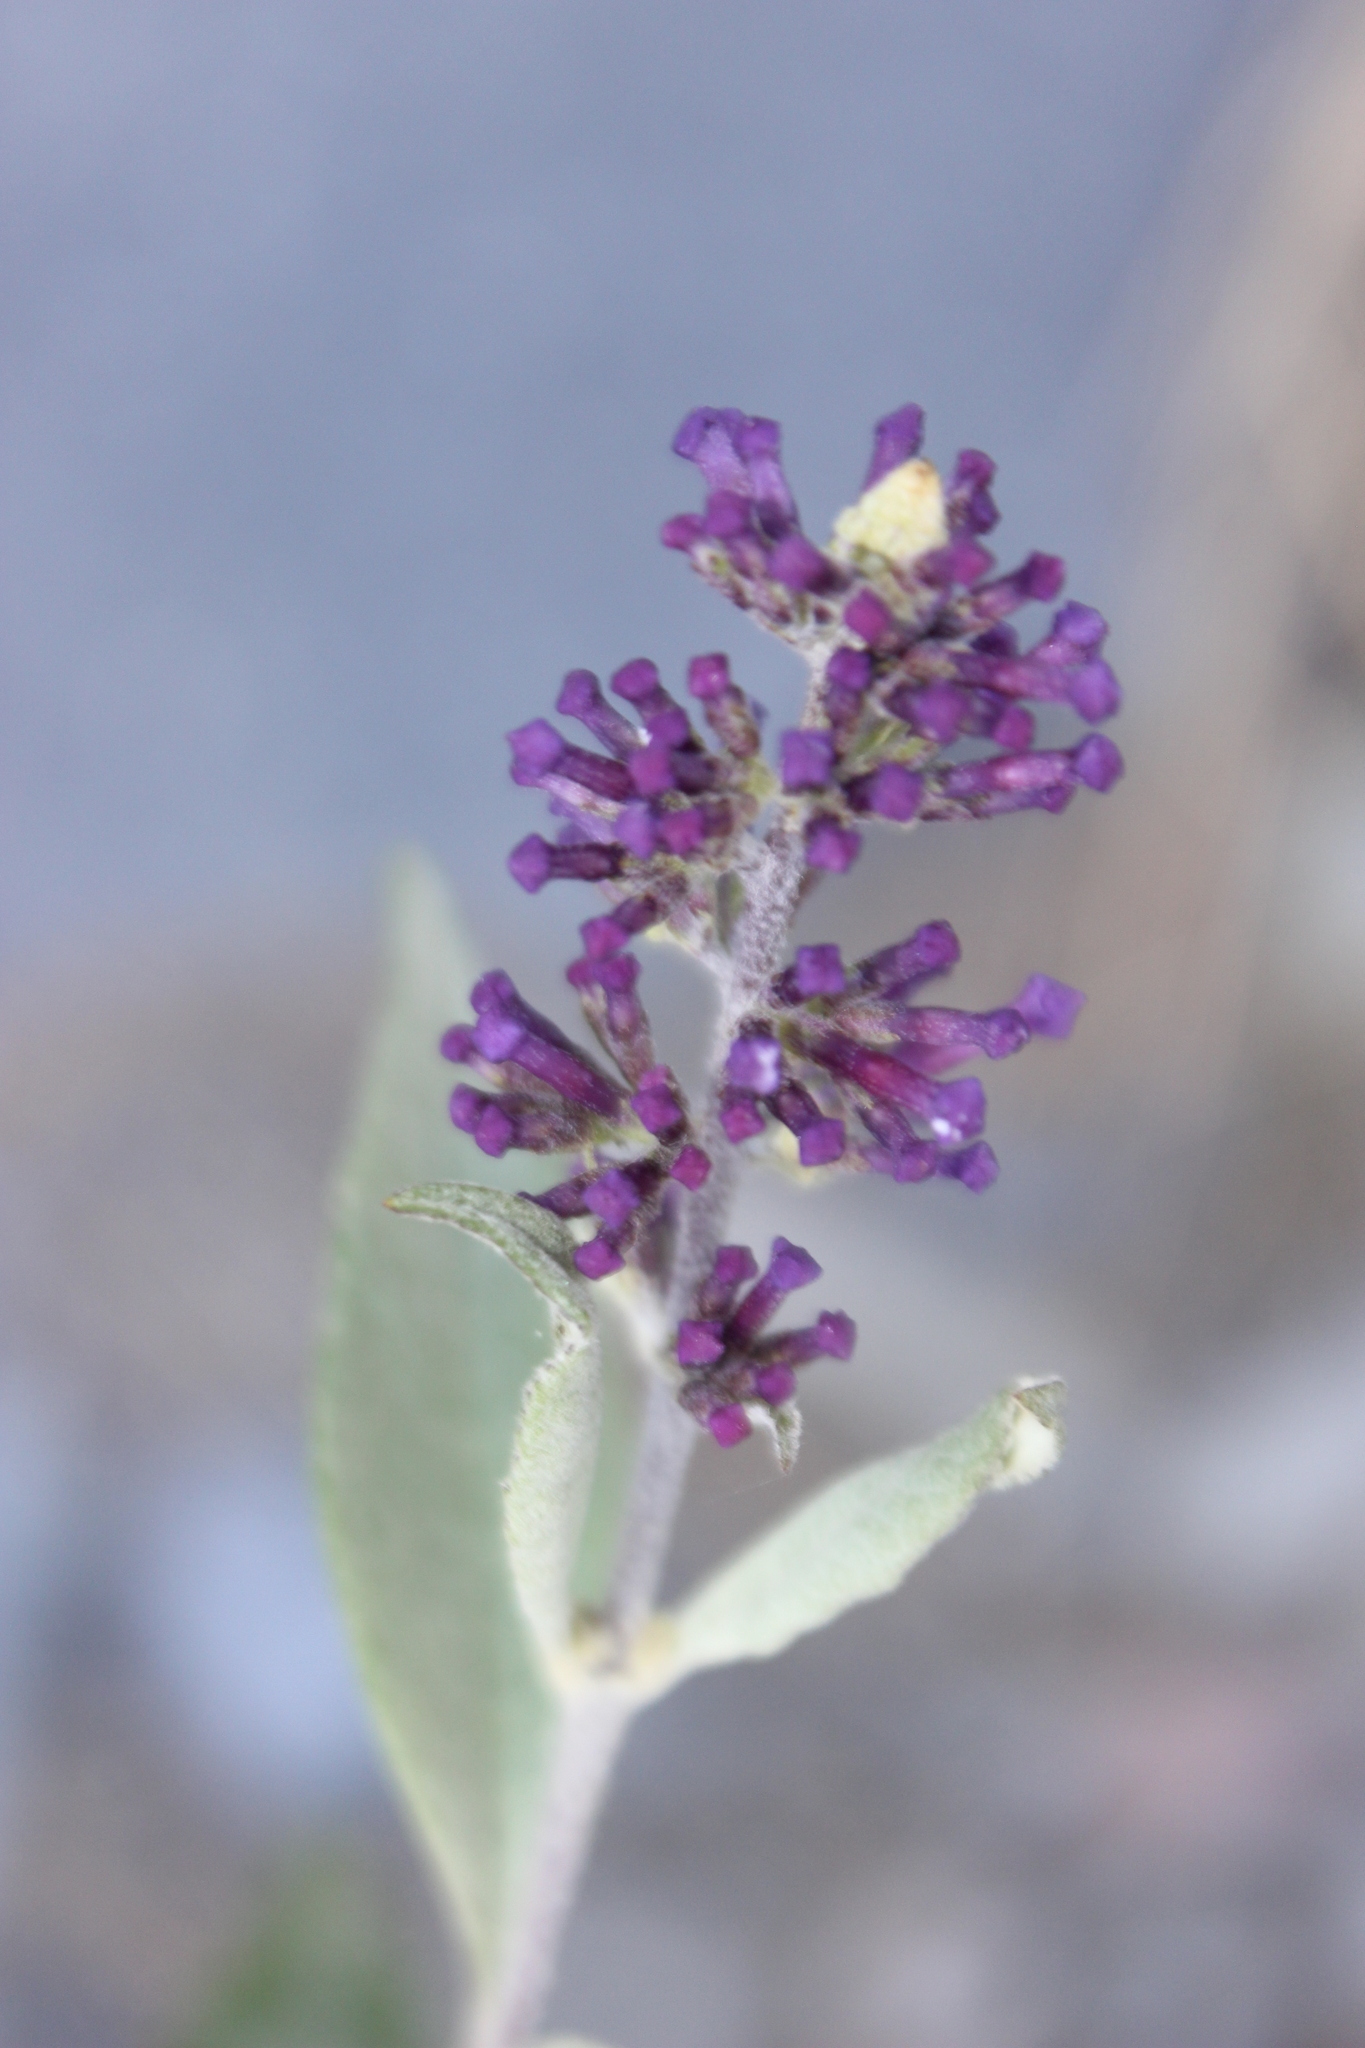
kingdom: Plantae
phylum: Tracheophyta
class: Magnoliopsida
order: Lamiales
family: Scrophulariaceae
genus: Buddleja
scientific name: Buddleja davidii
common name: Butterfly-bush
